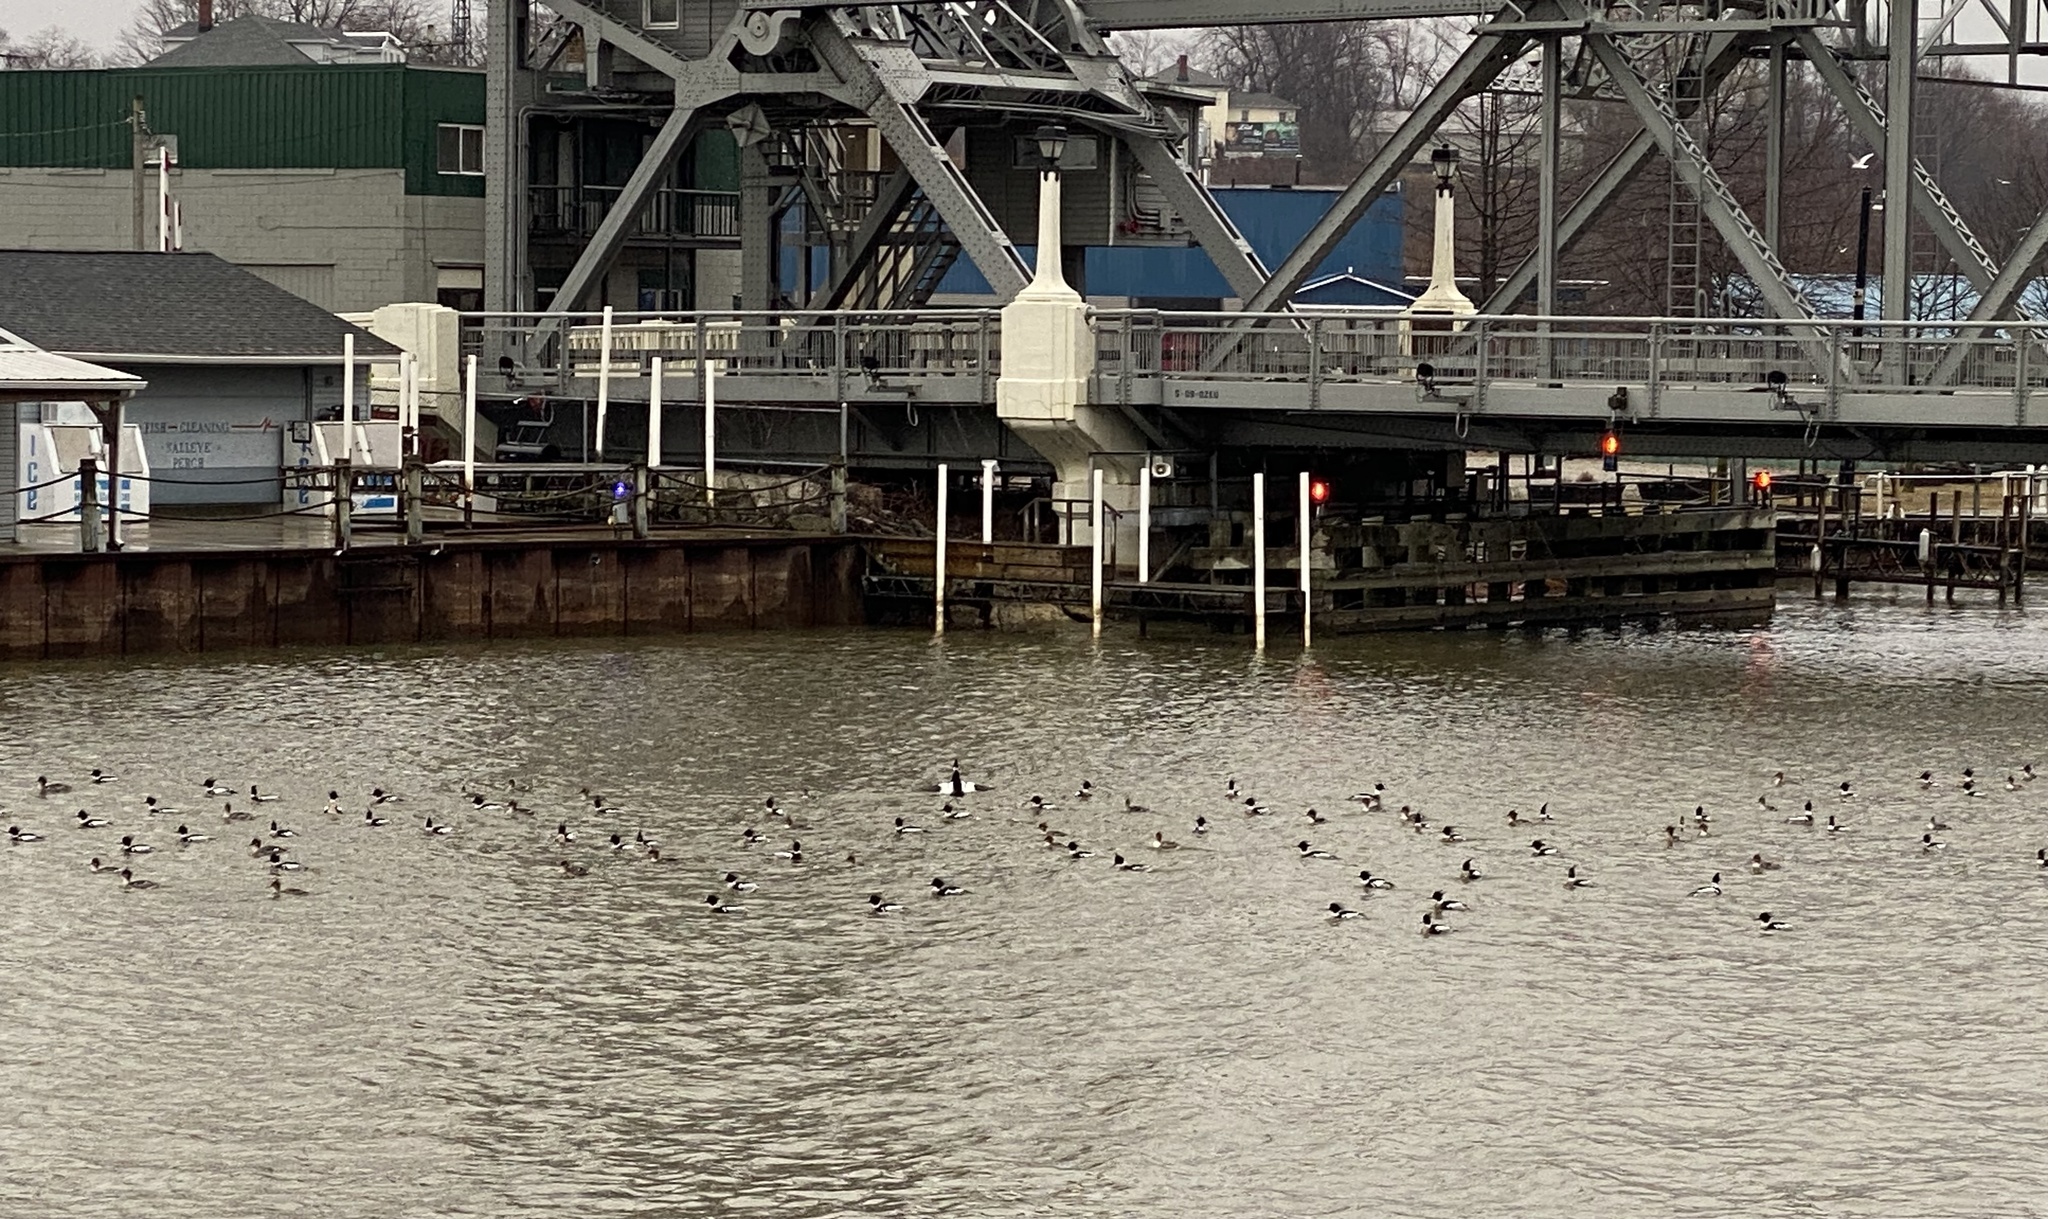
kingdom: Animalia
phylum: Chordata
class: Aves
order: Anseriformes
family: Anatidae
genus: Mergus
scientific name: Mergus serrator
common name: Red-breasted merganser
